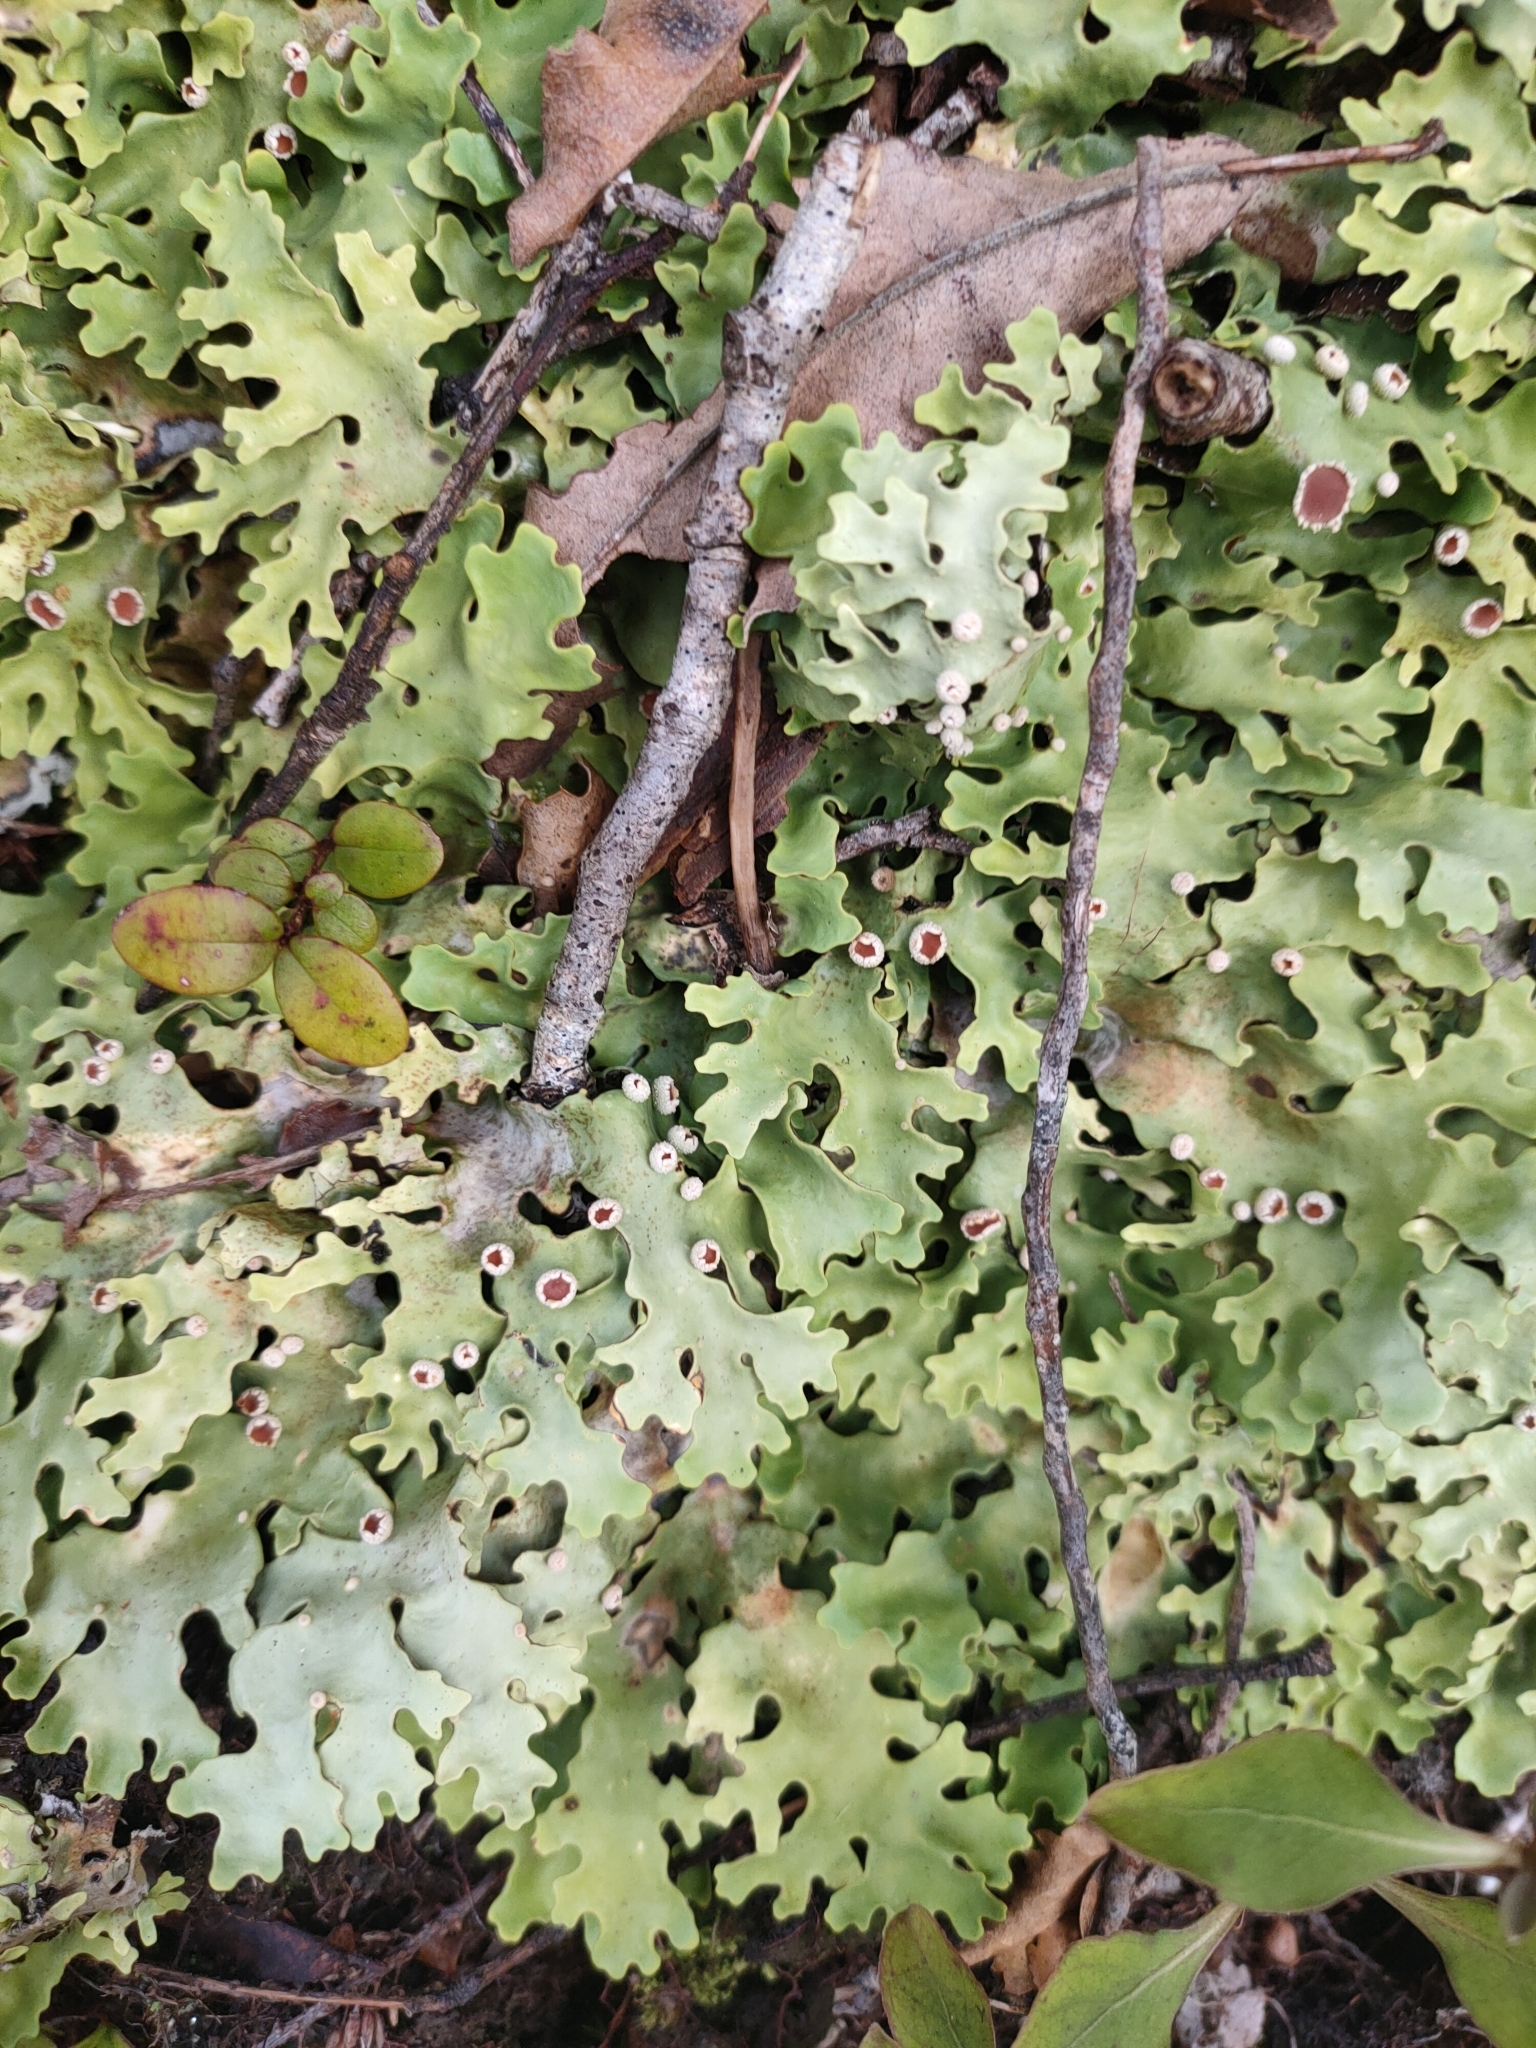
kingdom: Fungi
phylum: Ascomycota
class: Lecanoromycetes
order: Peltigerales
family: Lobariaceae
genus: Pseudocyphellaria
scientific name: Pseudocyphellaria homeophylla
